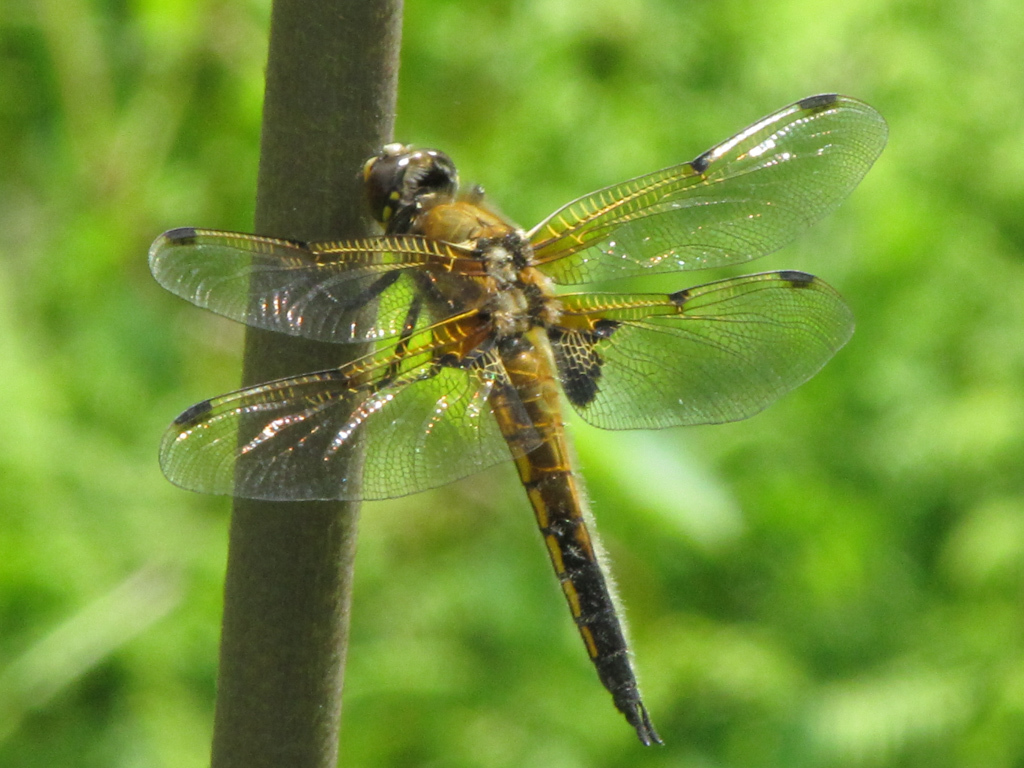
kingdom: Animalia
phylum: Arthropoda
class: Insecta
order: Odonata
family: Libellulidae
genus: Libellula
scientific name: Libellula quadrimaculata
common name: Four-spotted chaser
